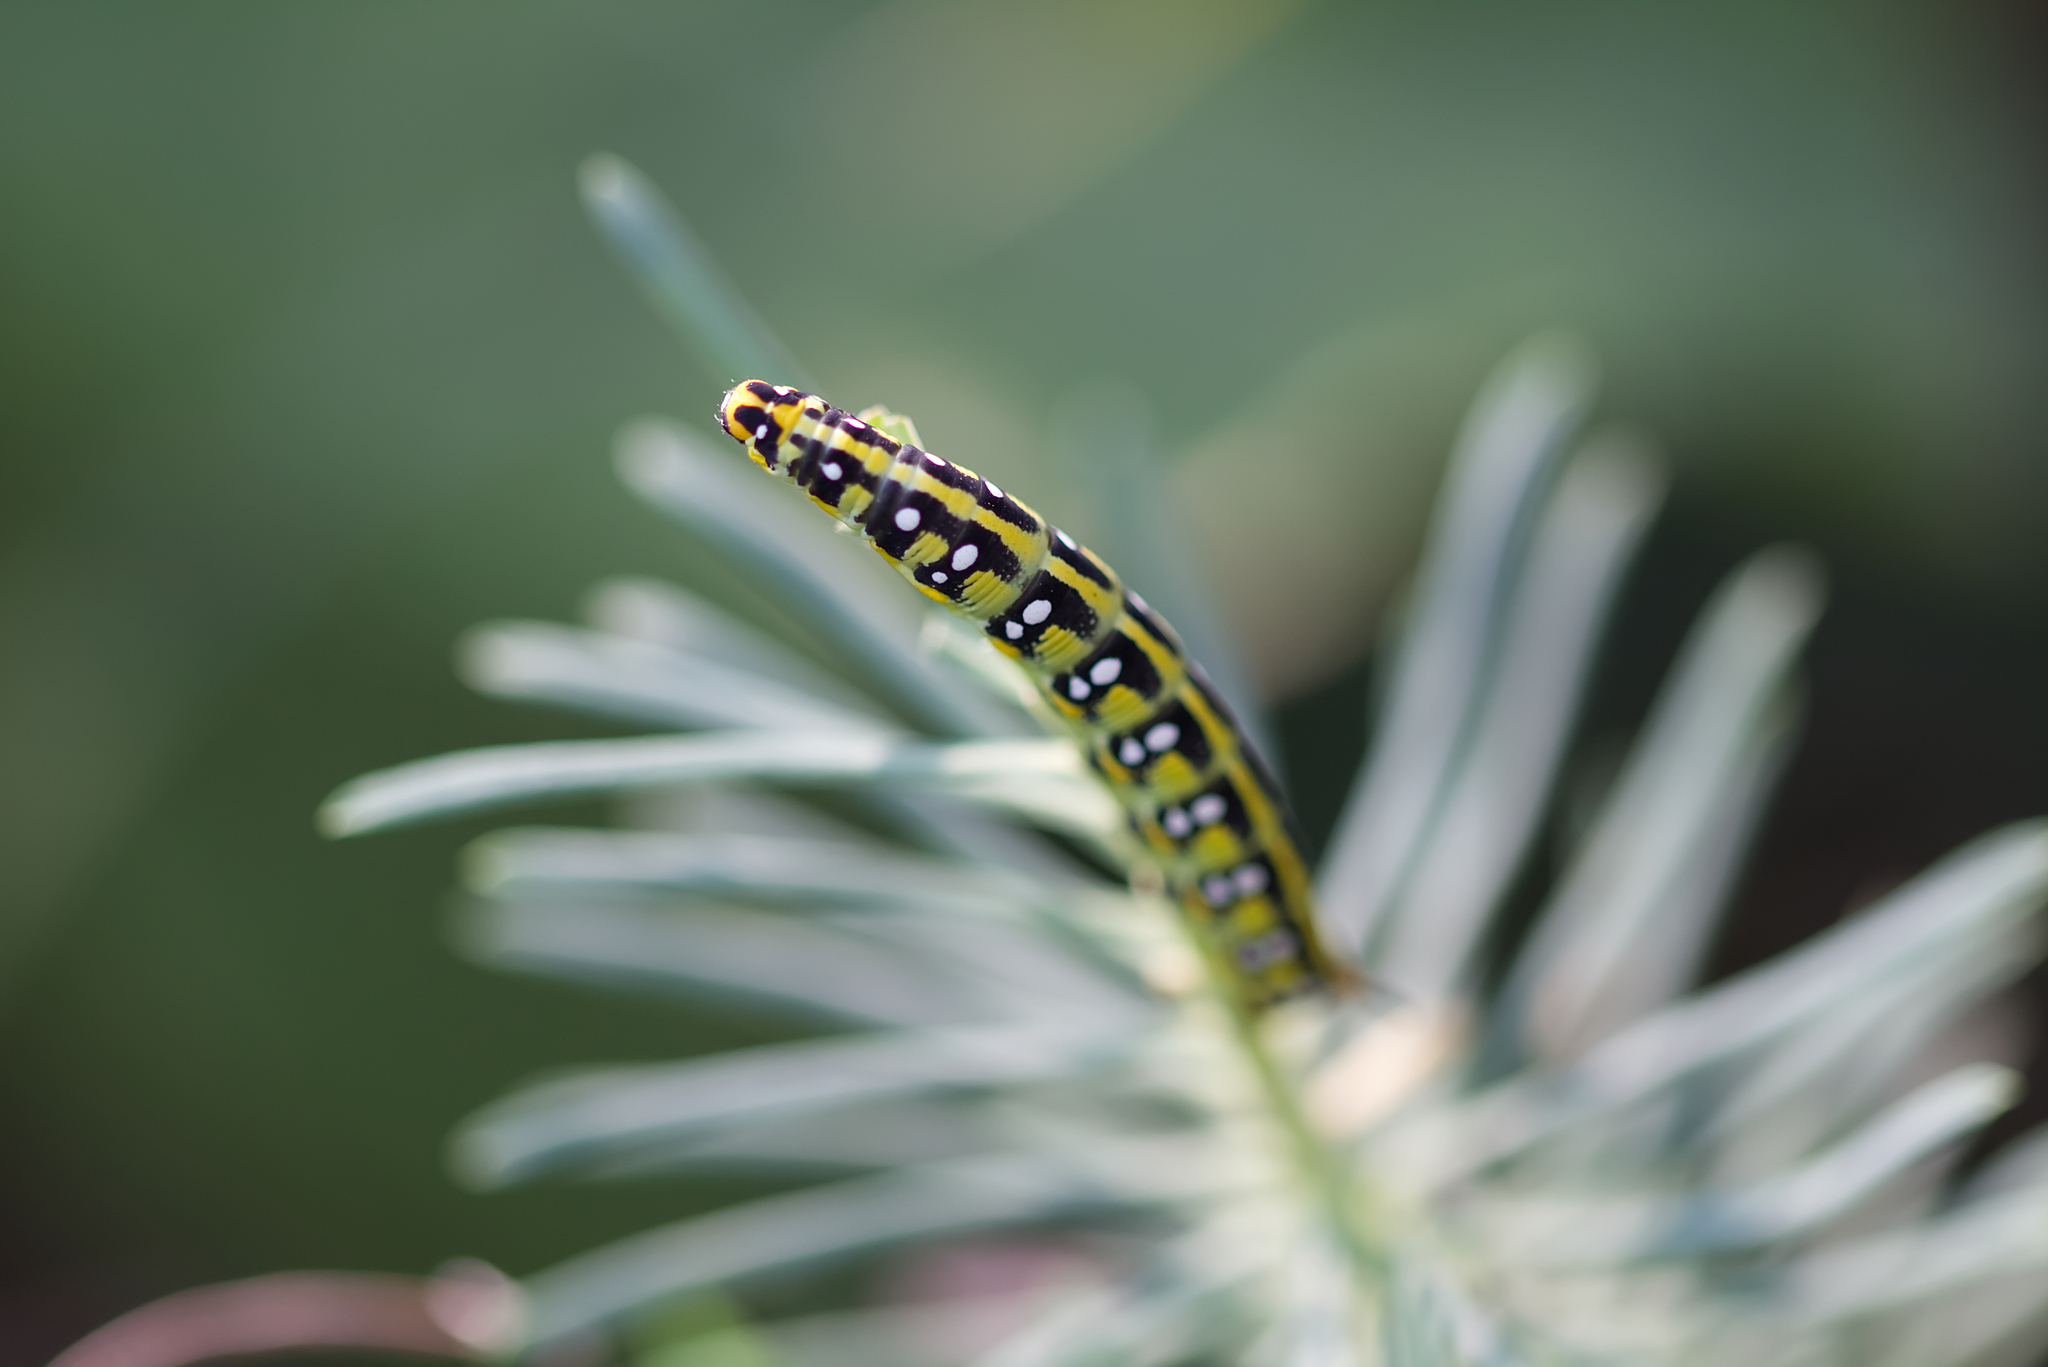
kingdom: Animalia
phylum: Arthropoda
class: Insecta
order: Lepidoptera
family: Sphingidae
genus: Hyles
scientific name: Hyles euphorbiae
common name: Spurge hawk-moth
